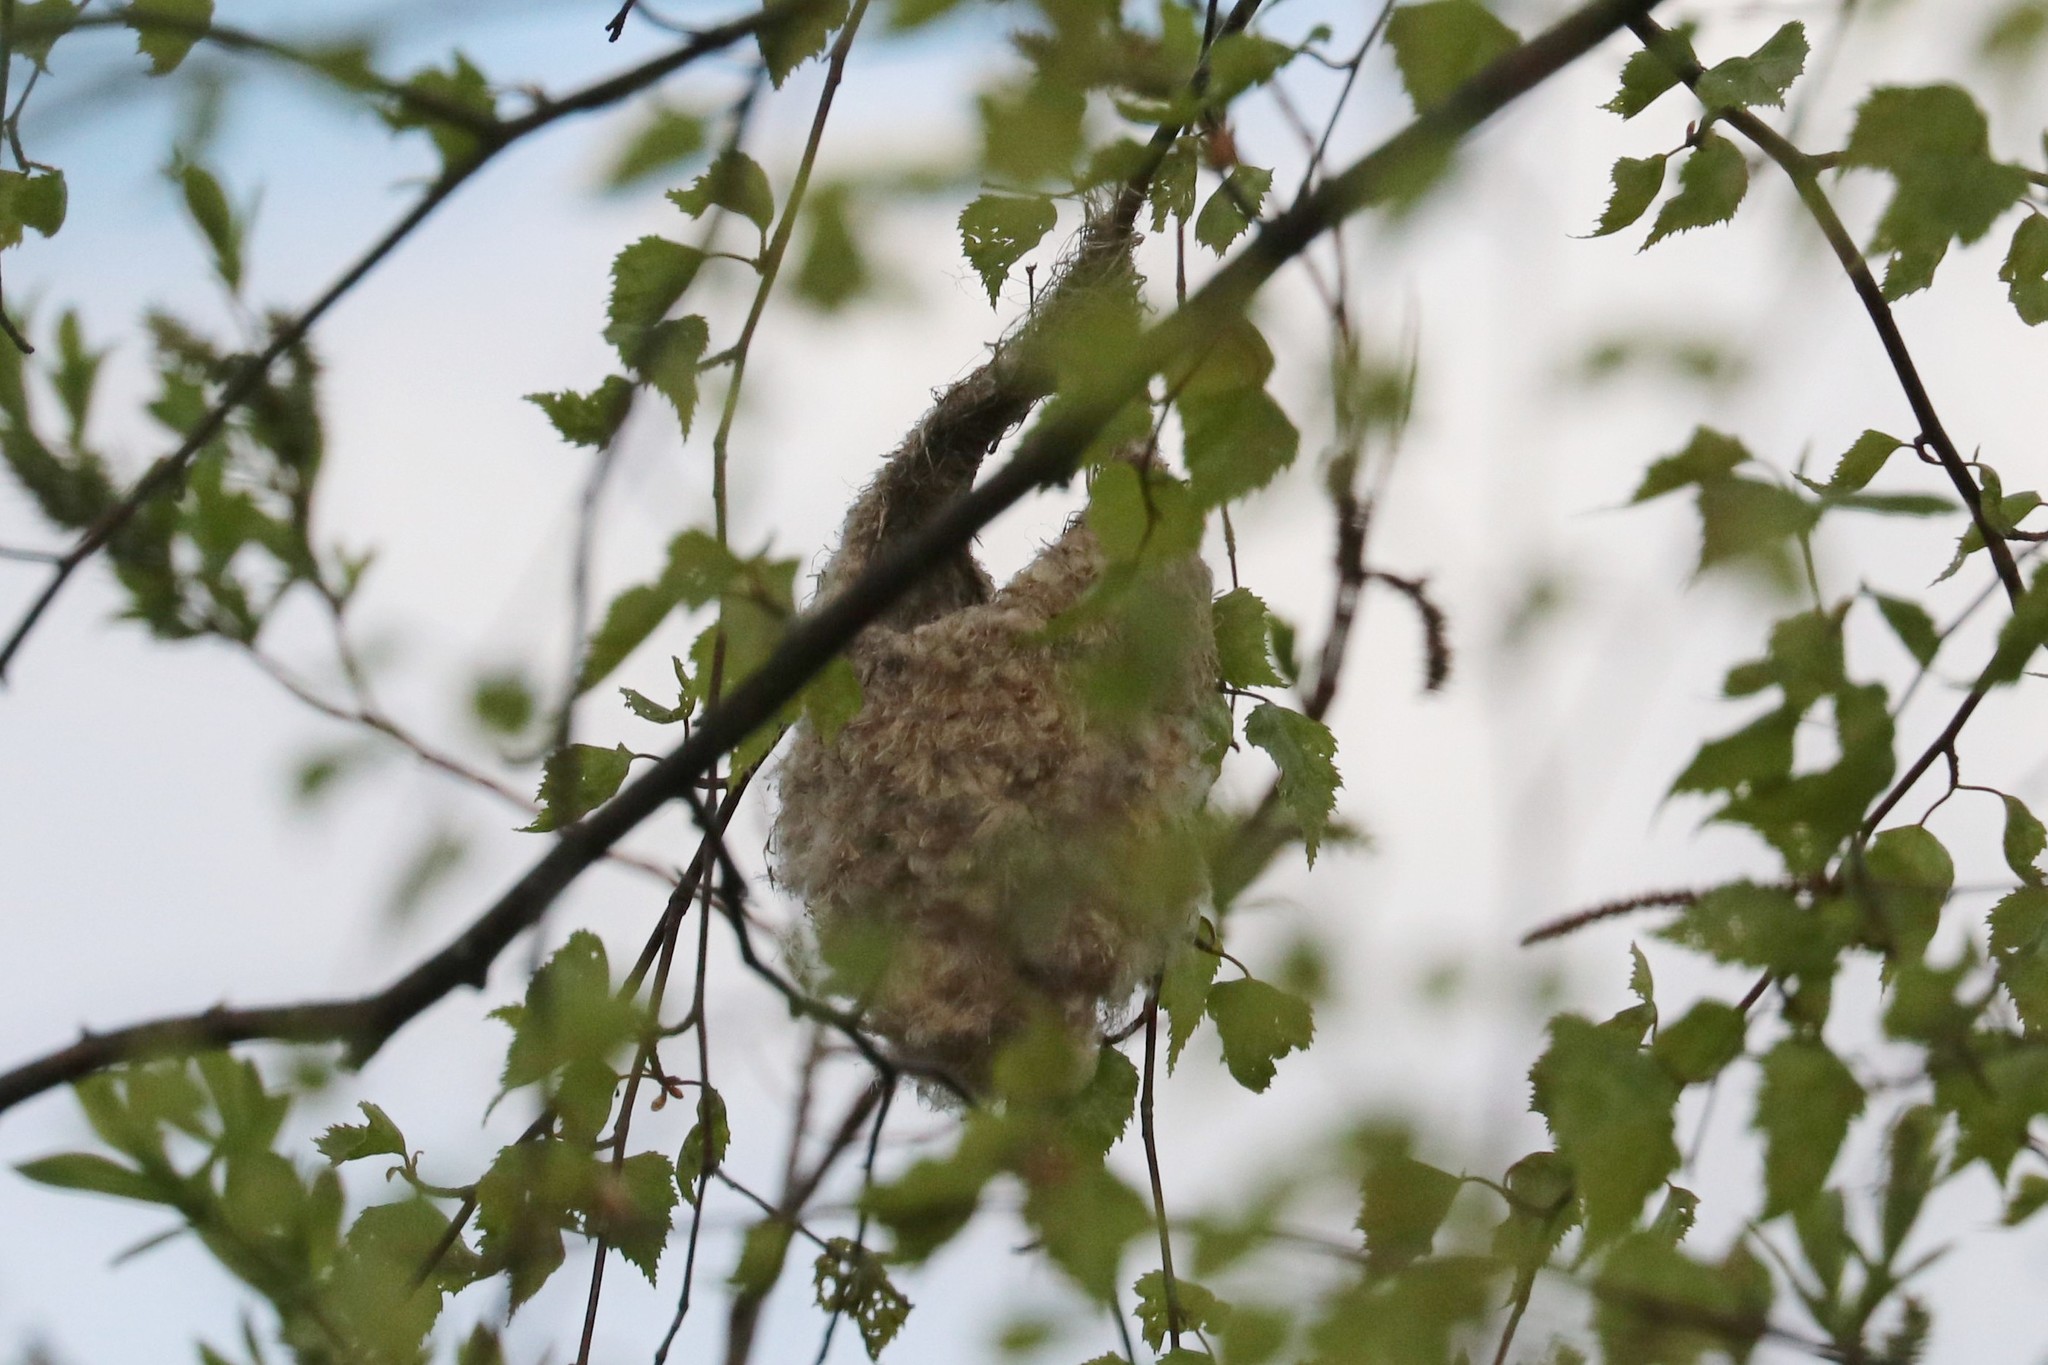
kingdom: Animalia
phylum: Chordata
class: Aves
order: Passeriformes
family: Remizidae
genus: Remiz
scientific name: Remiz pendulinus
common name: Eurasian penduline tit
